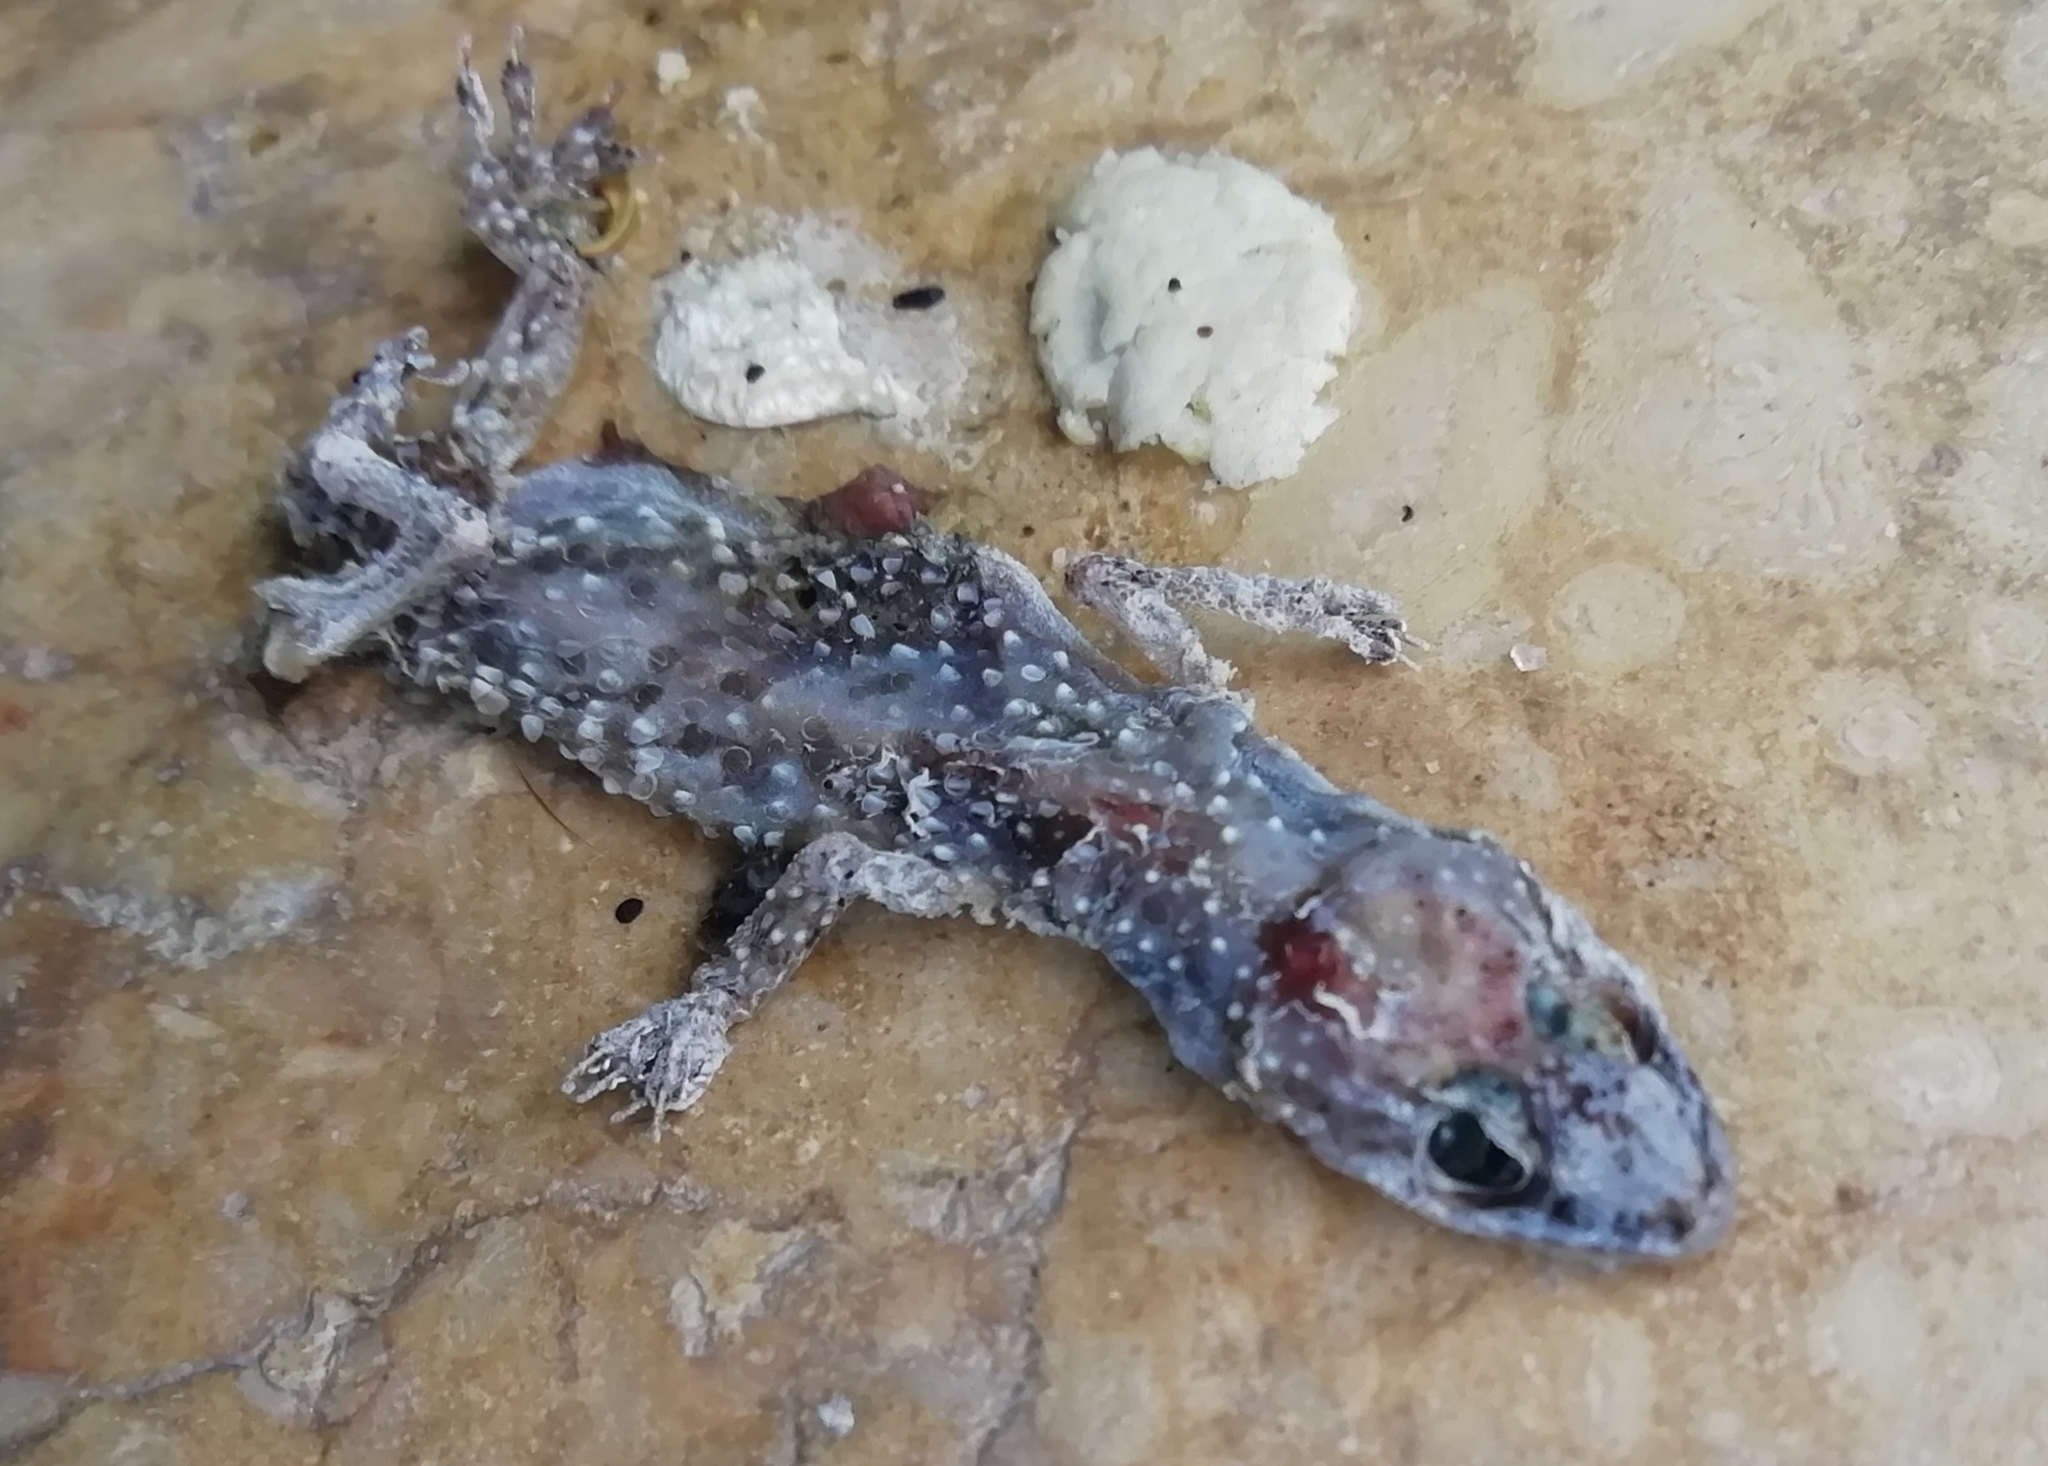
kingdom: Animalia
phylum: Chordata
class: Squamata
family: Gekkonidae
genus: Hemidactylus
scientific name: Hemidactylus turcicus
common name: Turkish gecko
